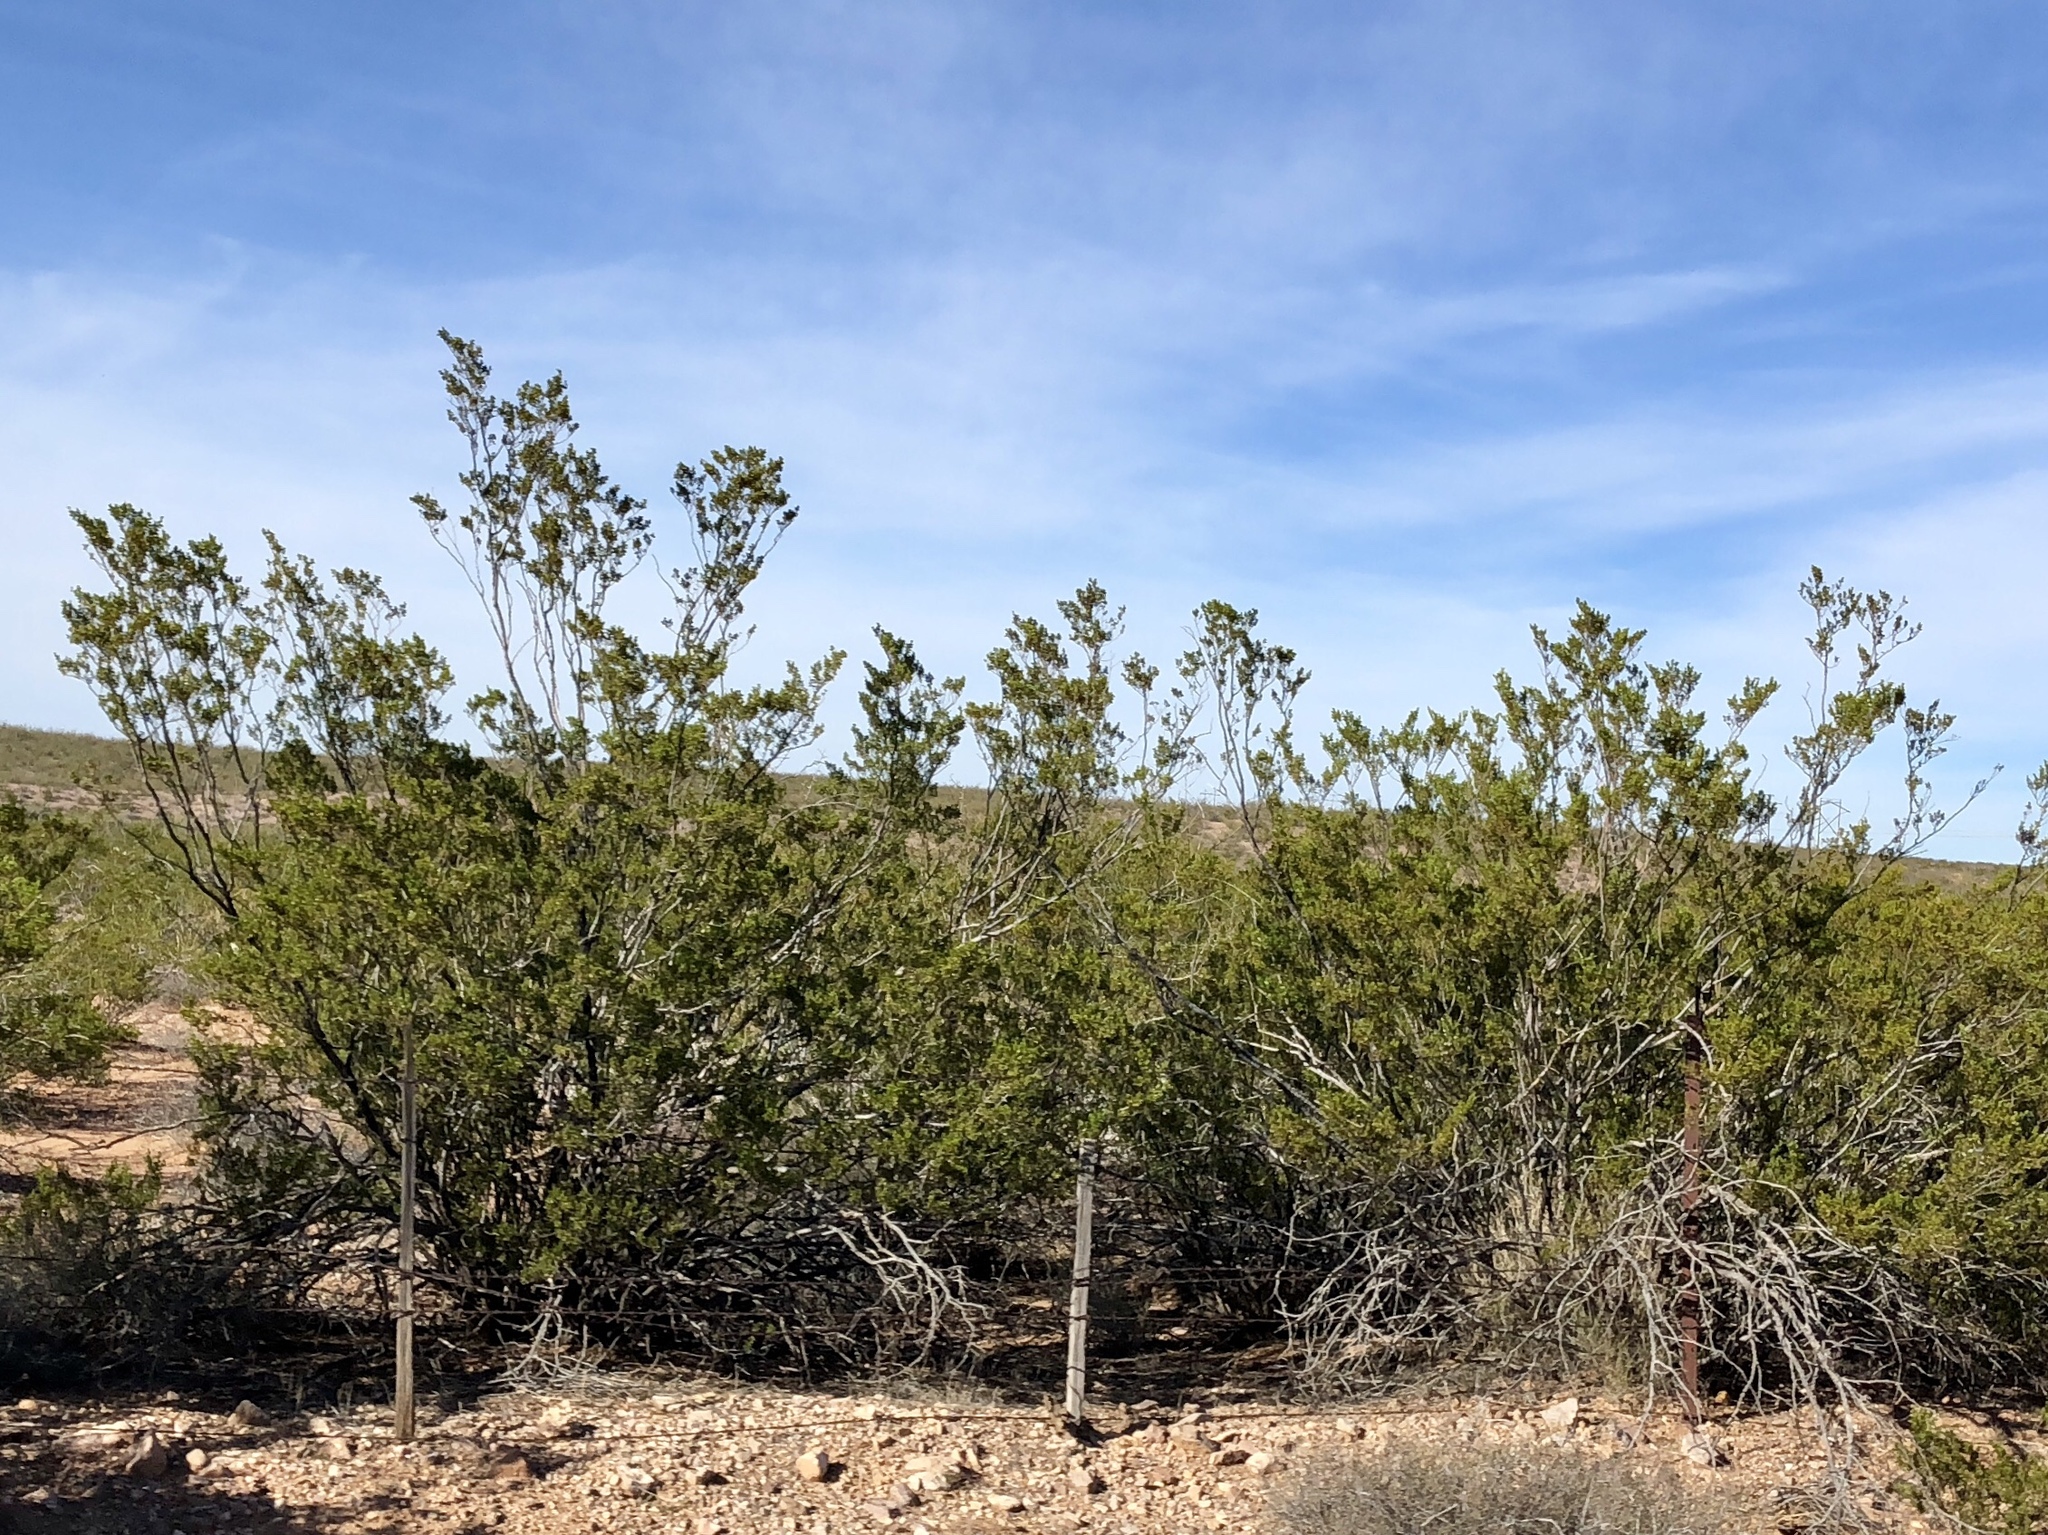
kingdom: Plantae
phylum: Tracheophyta
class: Magnoliopsida
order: Zygophyllales
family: Zygophyllaceae
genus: Larrea
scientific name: Larrea tridentata
